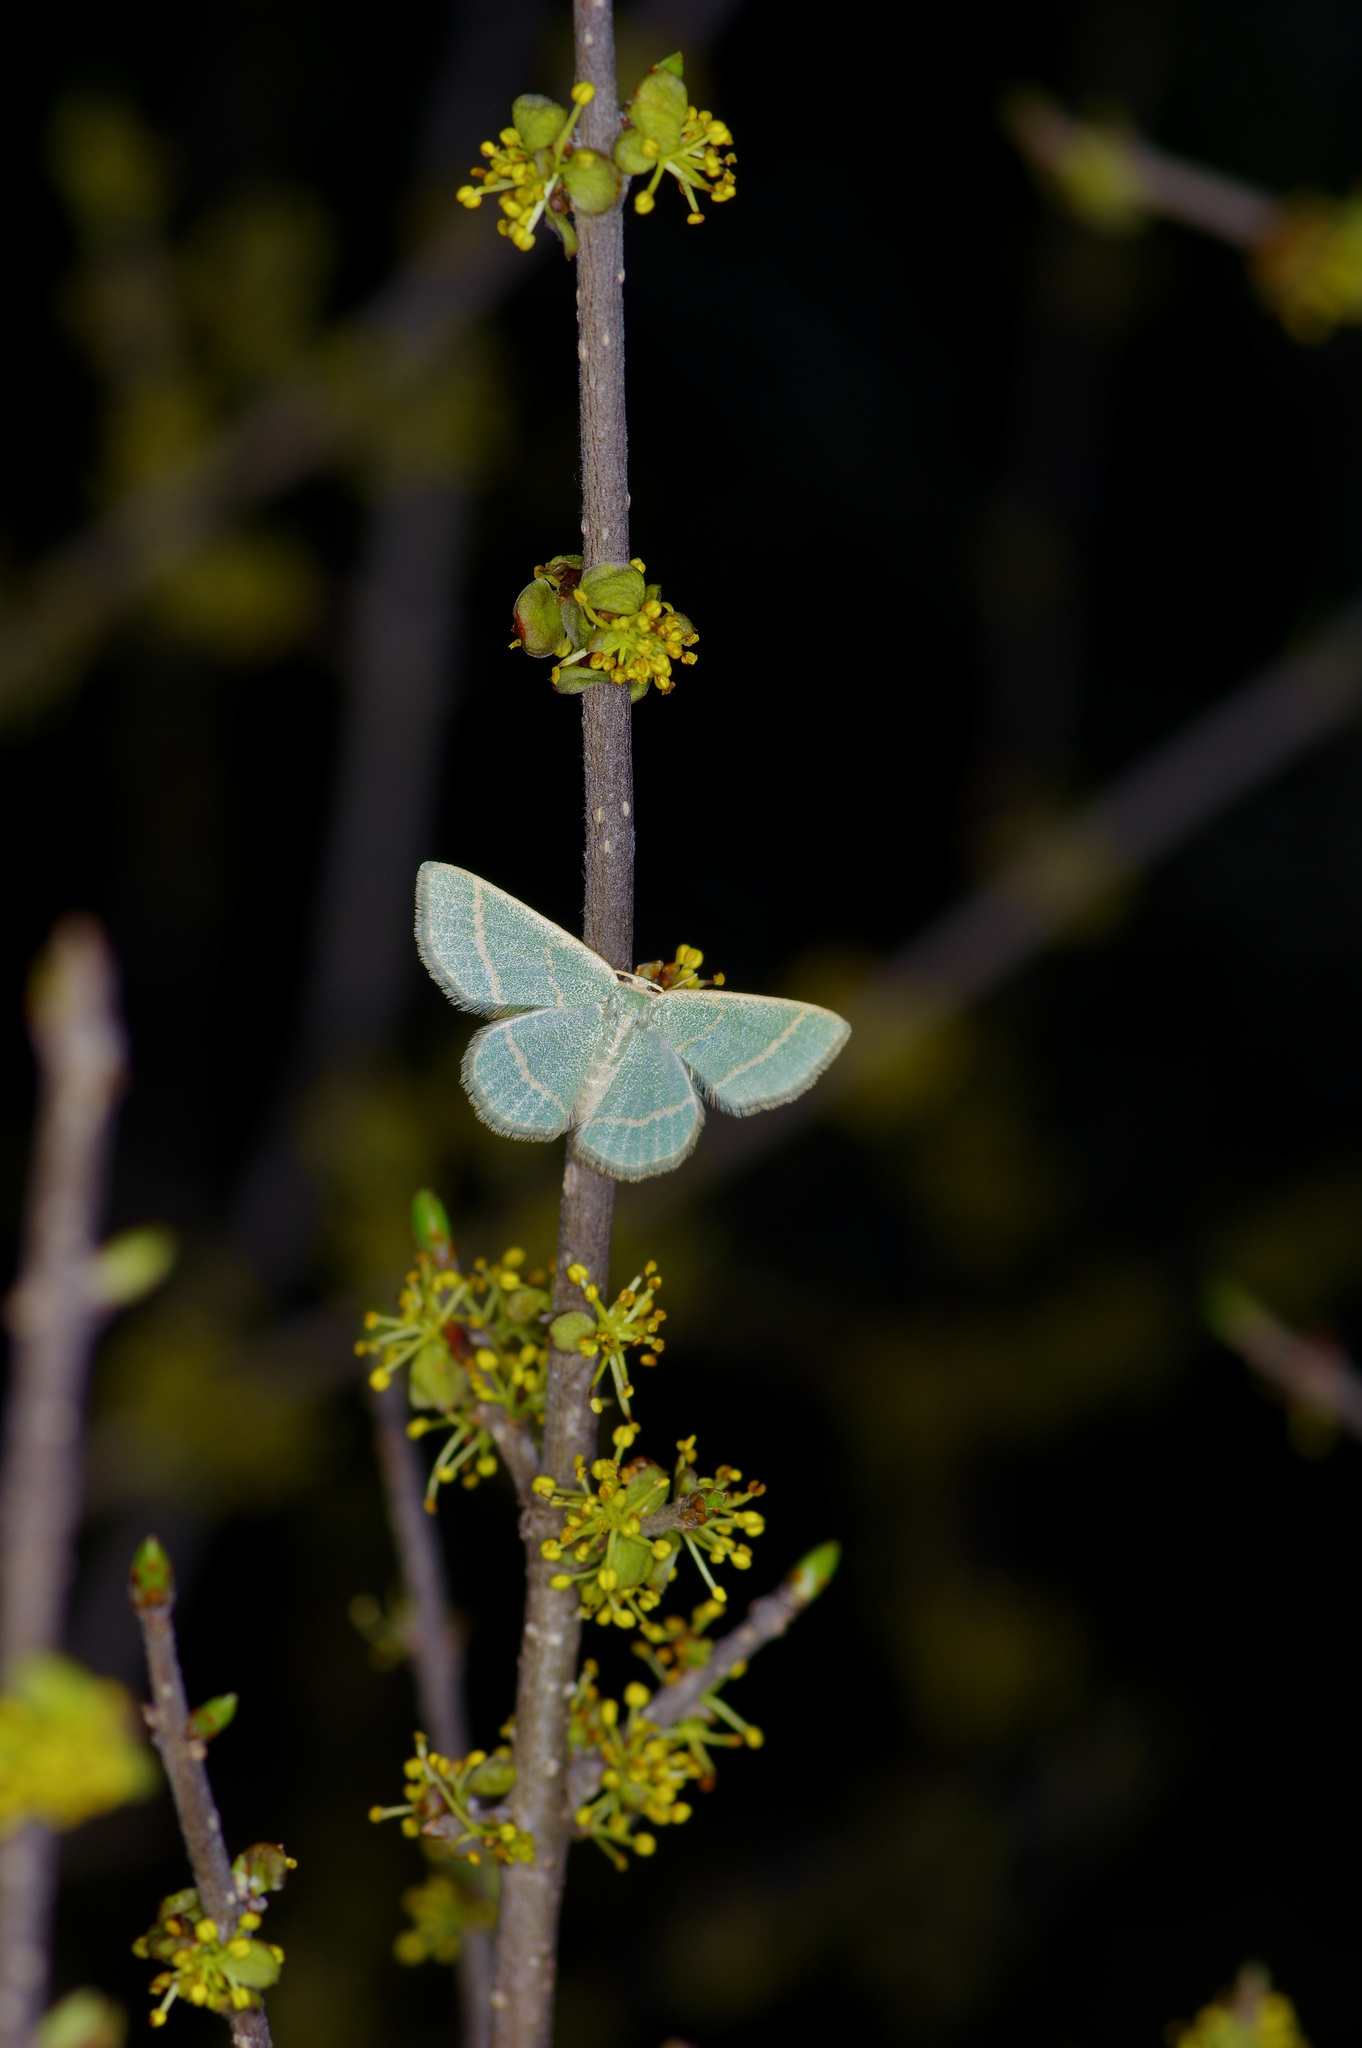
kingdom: Animalia
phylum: Arthropoda
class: Insecta
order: Lepidoptera
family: Geometridae
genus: Chlorochlamys
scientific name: Chlorochlamys chloroleucaria
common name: Blackberry looper
